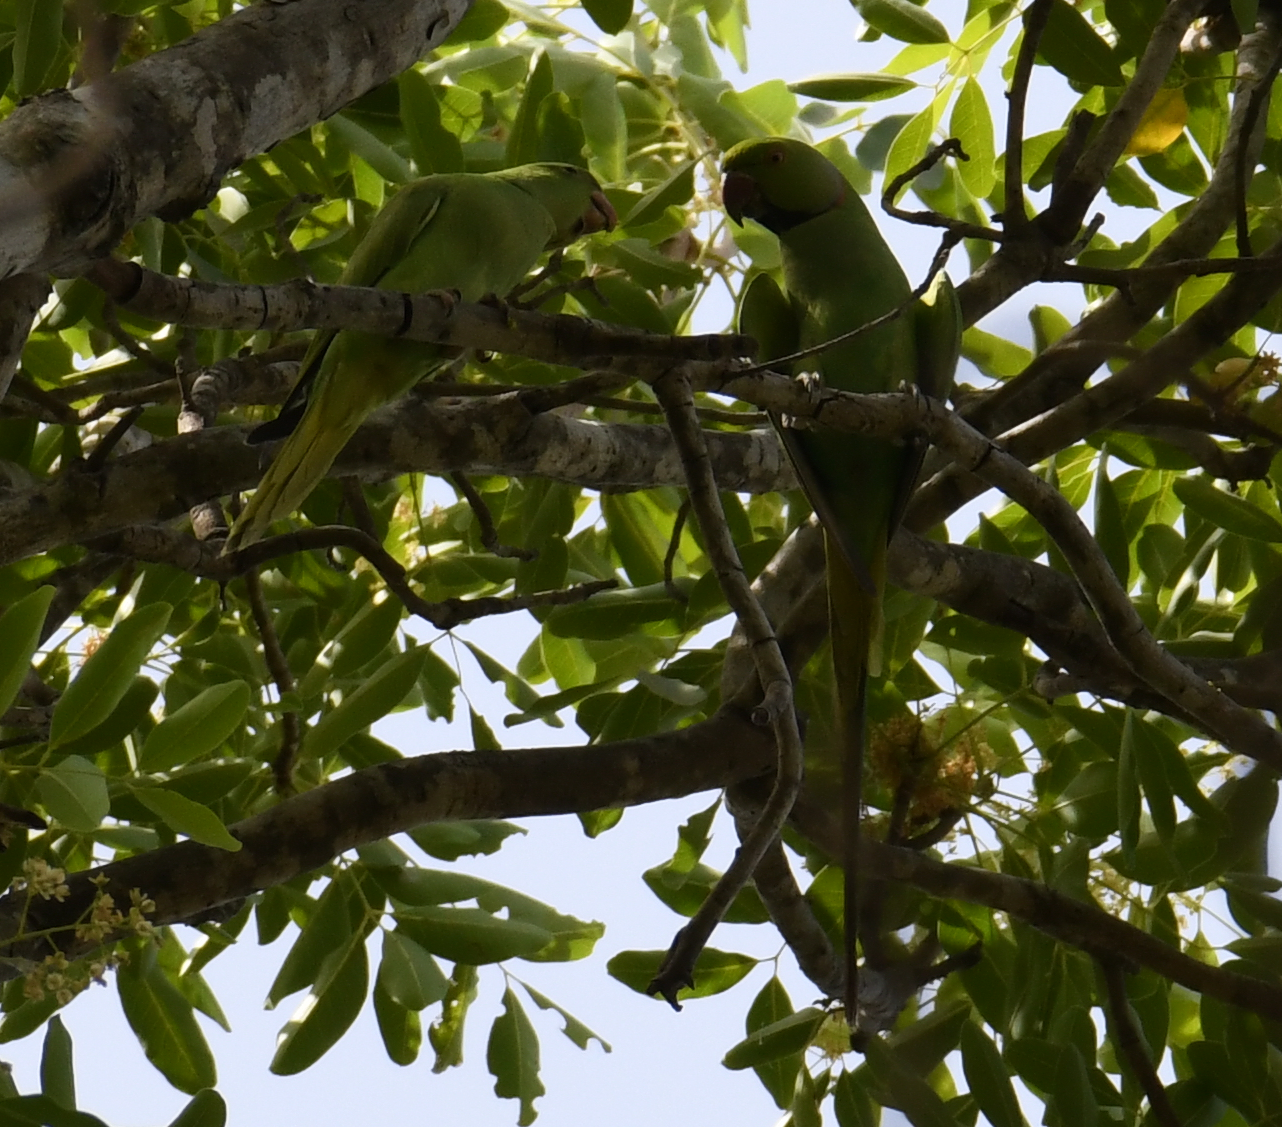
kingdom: Animalia
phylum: Chordata
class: Aves
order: Psittaciformes
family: Psittacidae
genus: Psittacula
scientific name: Psittacula krameri
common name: Rose-ringed parakeet
